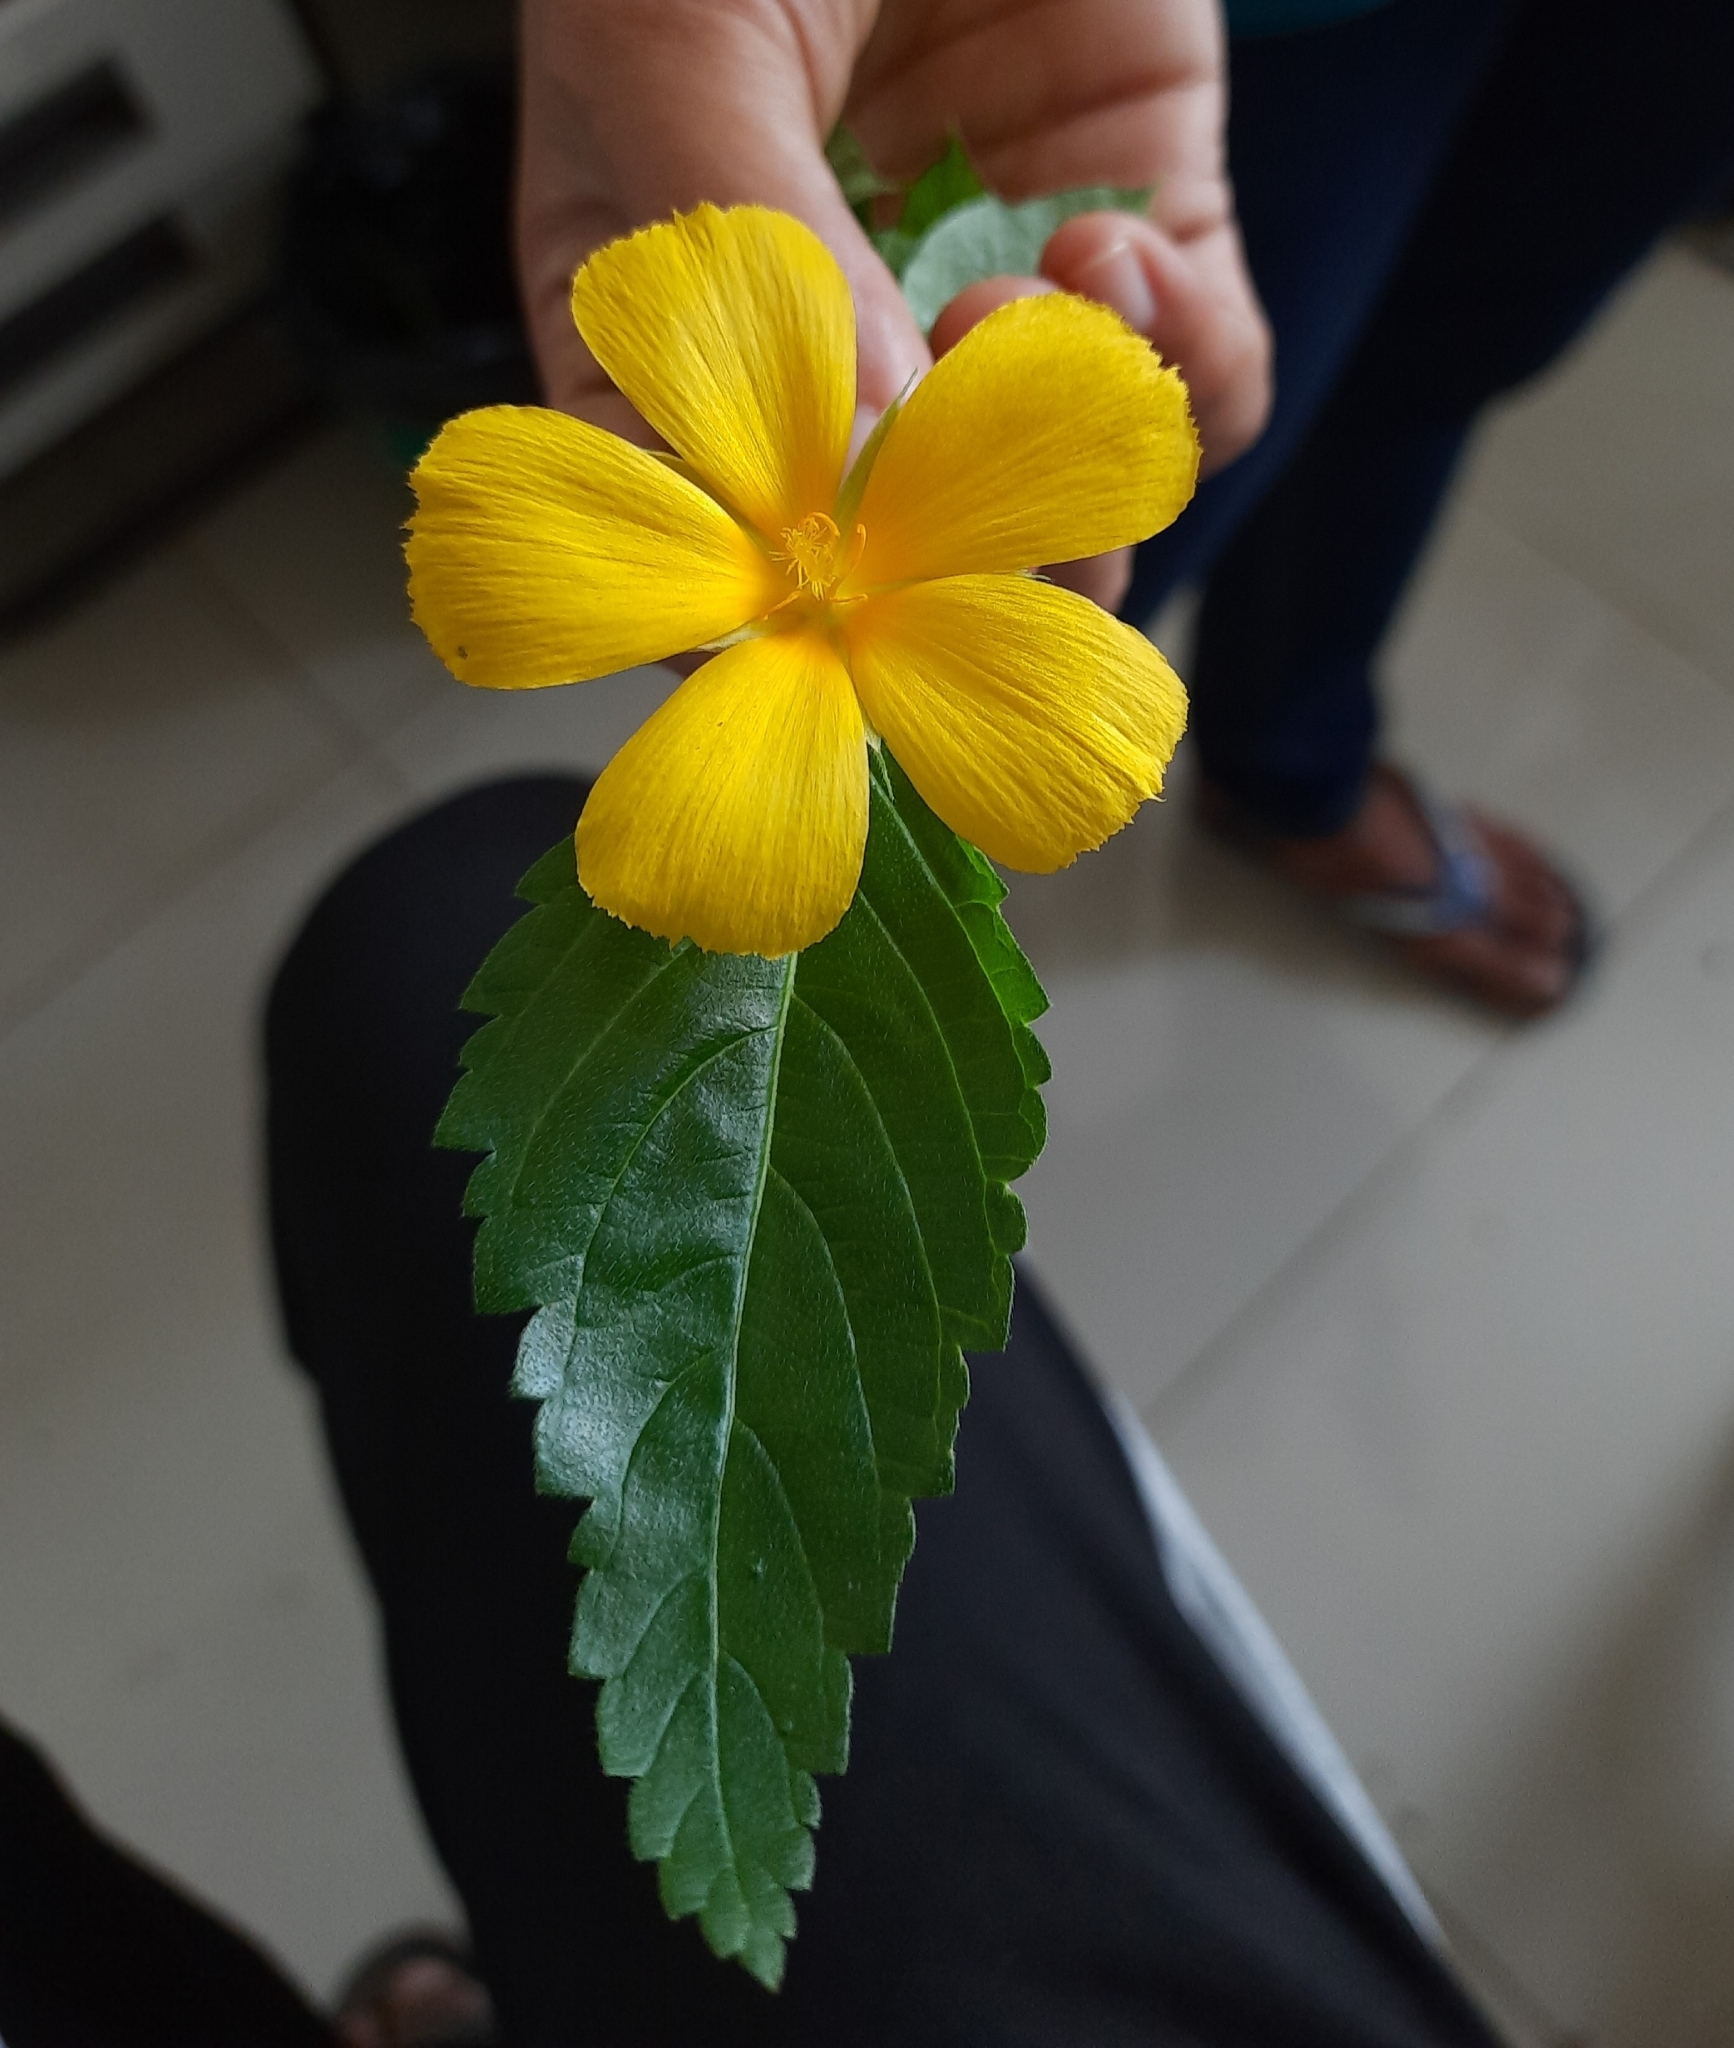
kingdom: Plantae
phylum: Tracheophyta
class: Magnoliopsida
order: Malpighiales
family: Turneraceae
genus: Turnera
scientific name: Turnera ulmifolia
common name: Ramgoat dashalong
